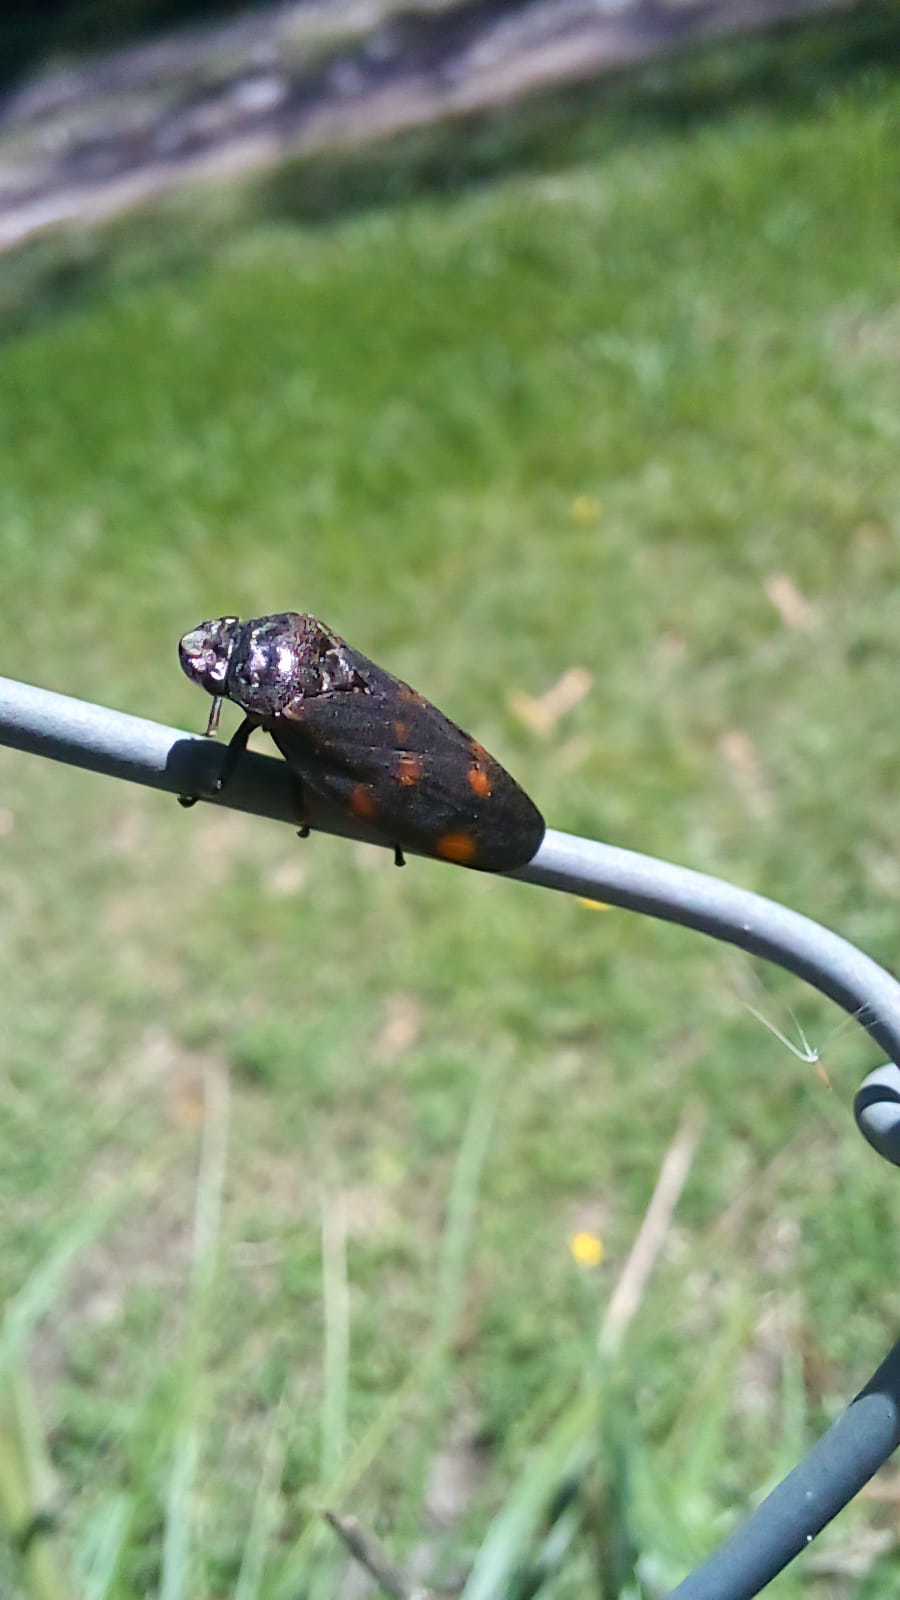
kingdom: Animalia
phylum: Arthropoda
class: Insecta
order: Hemiptera
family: Cercopidae
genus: Kanaima
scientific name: Kanaima fluvialis
